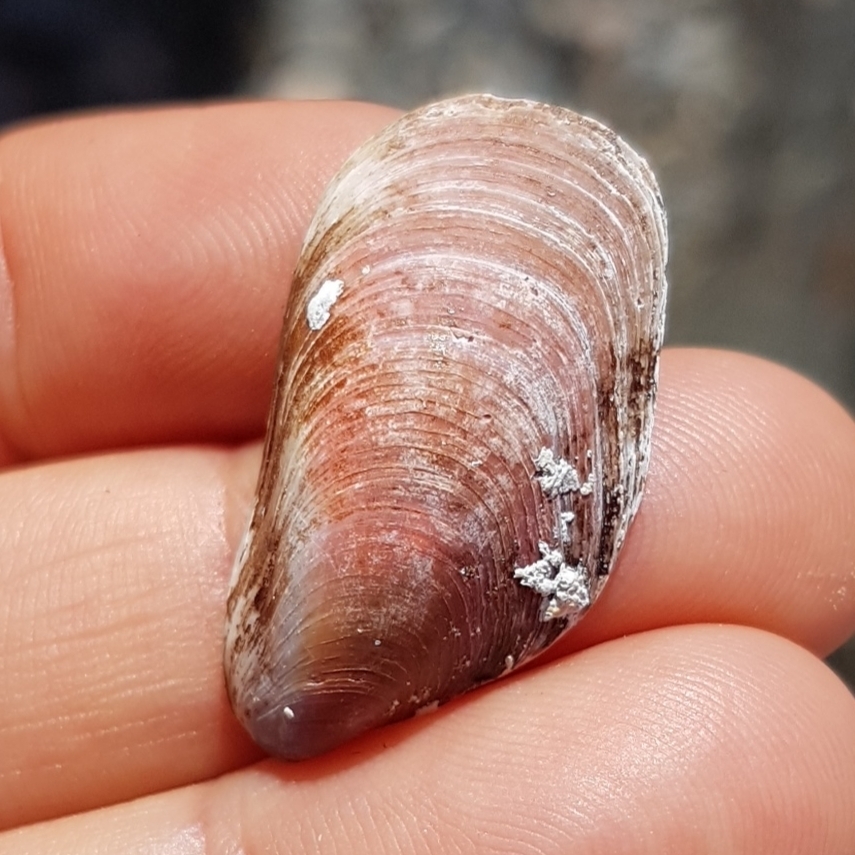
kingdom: Animalia
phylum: Mollusca
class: Bivalvia
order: Mytilida
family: Mytilidae
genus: Modiolus
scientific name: Modiolus barbatus
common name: Bearded mussel
